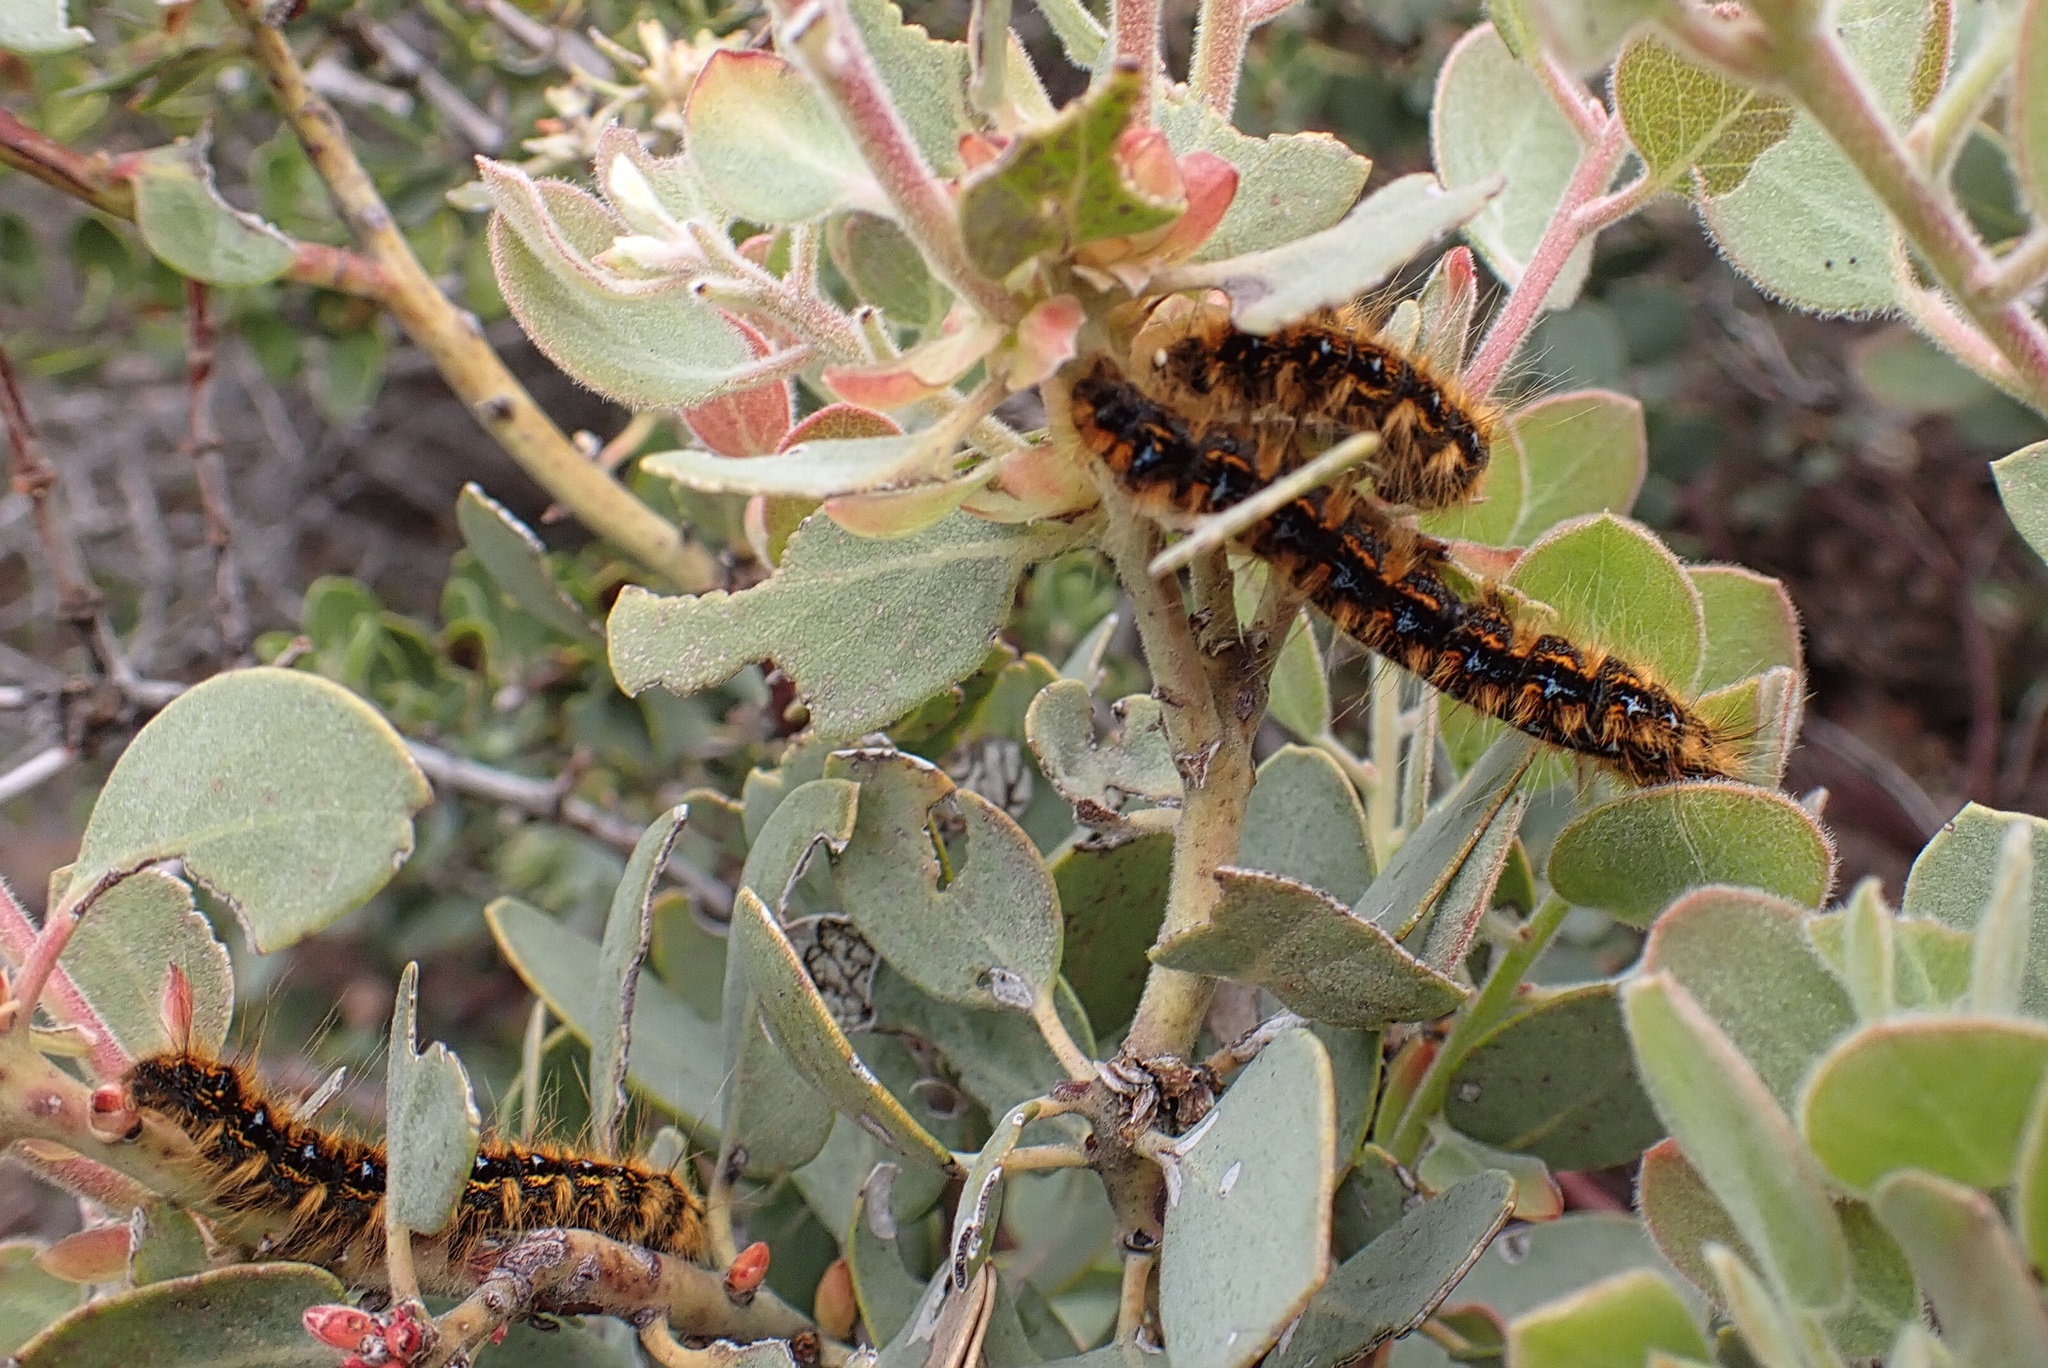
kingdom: Animalia
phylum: Arthropoda
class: Insecta
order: Lepidoptera
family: Lasiocampidae
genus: Malacosoma
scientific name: Malacosoma constricta
